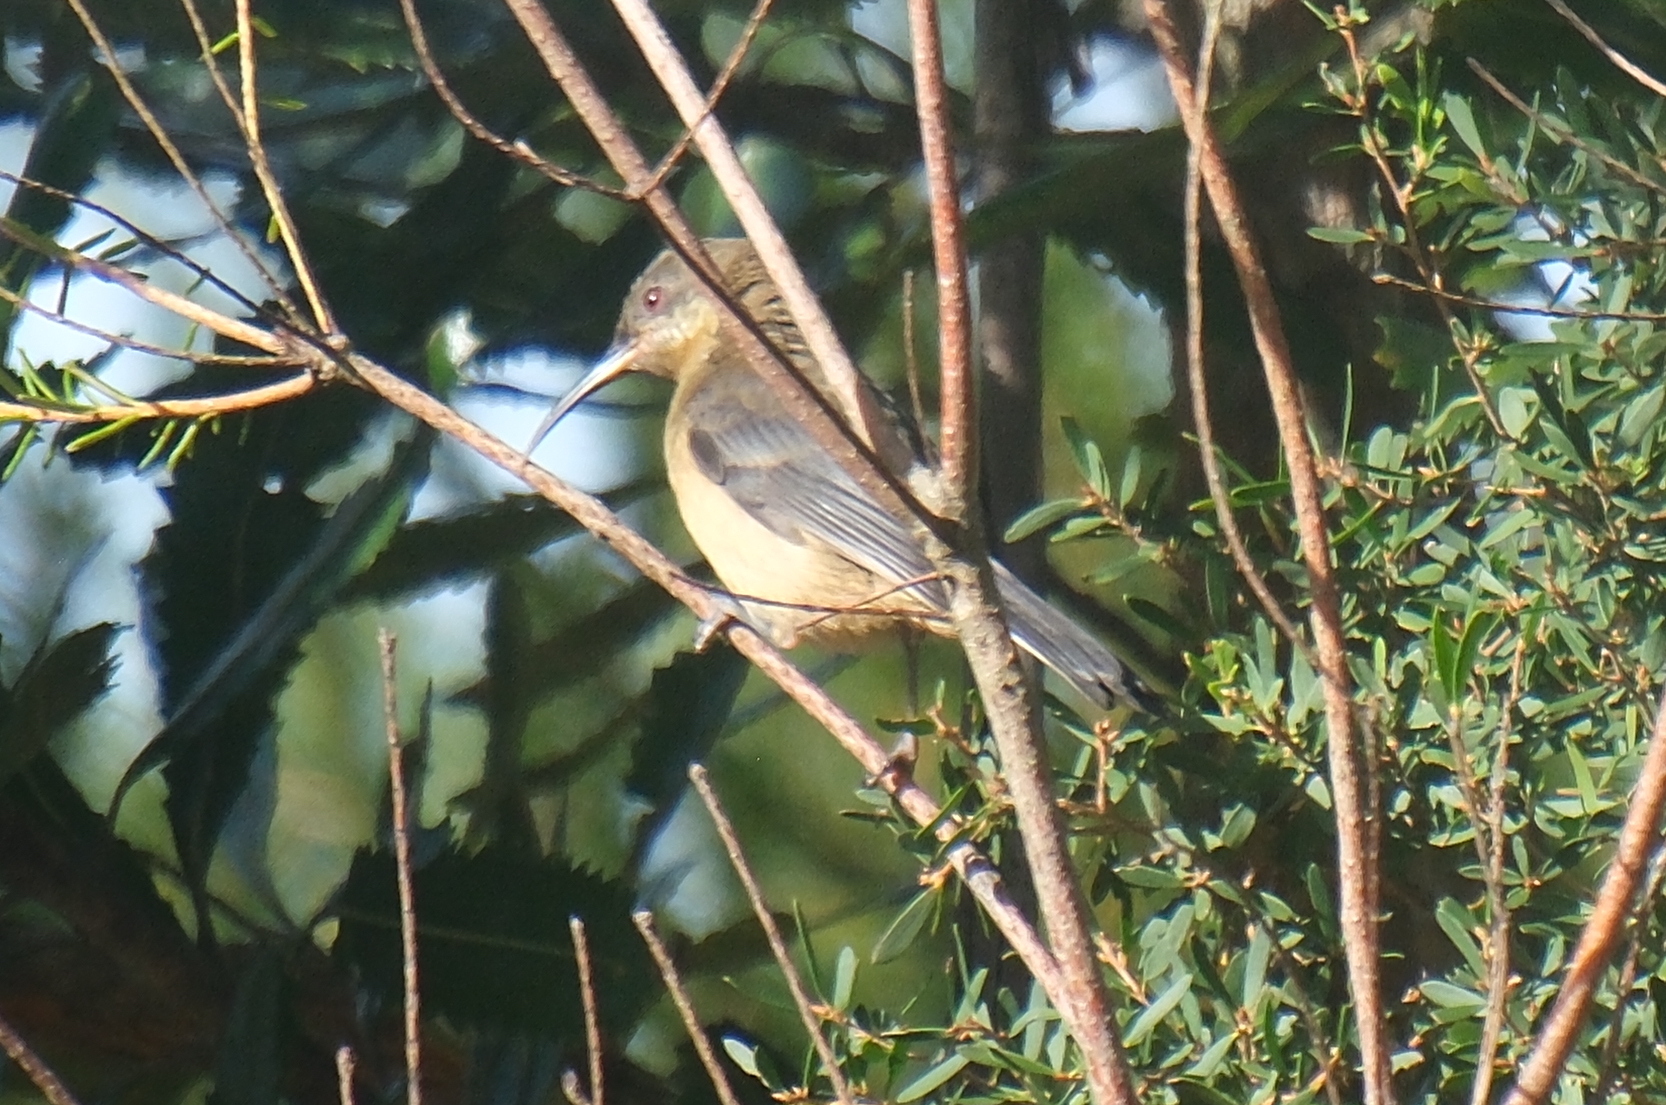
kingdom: Animalia
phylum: Chordata
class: Aves
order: Passeriformes
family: Meliphagidae
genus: Acanthorhynchus
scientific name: Acanthorhynchus tenuirostris
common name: Eastern spinebill
